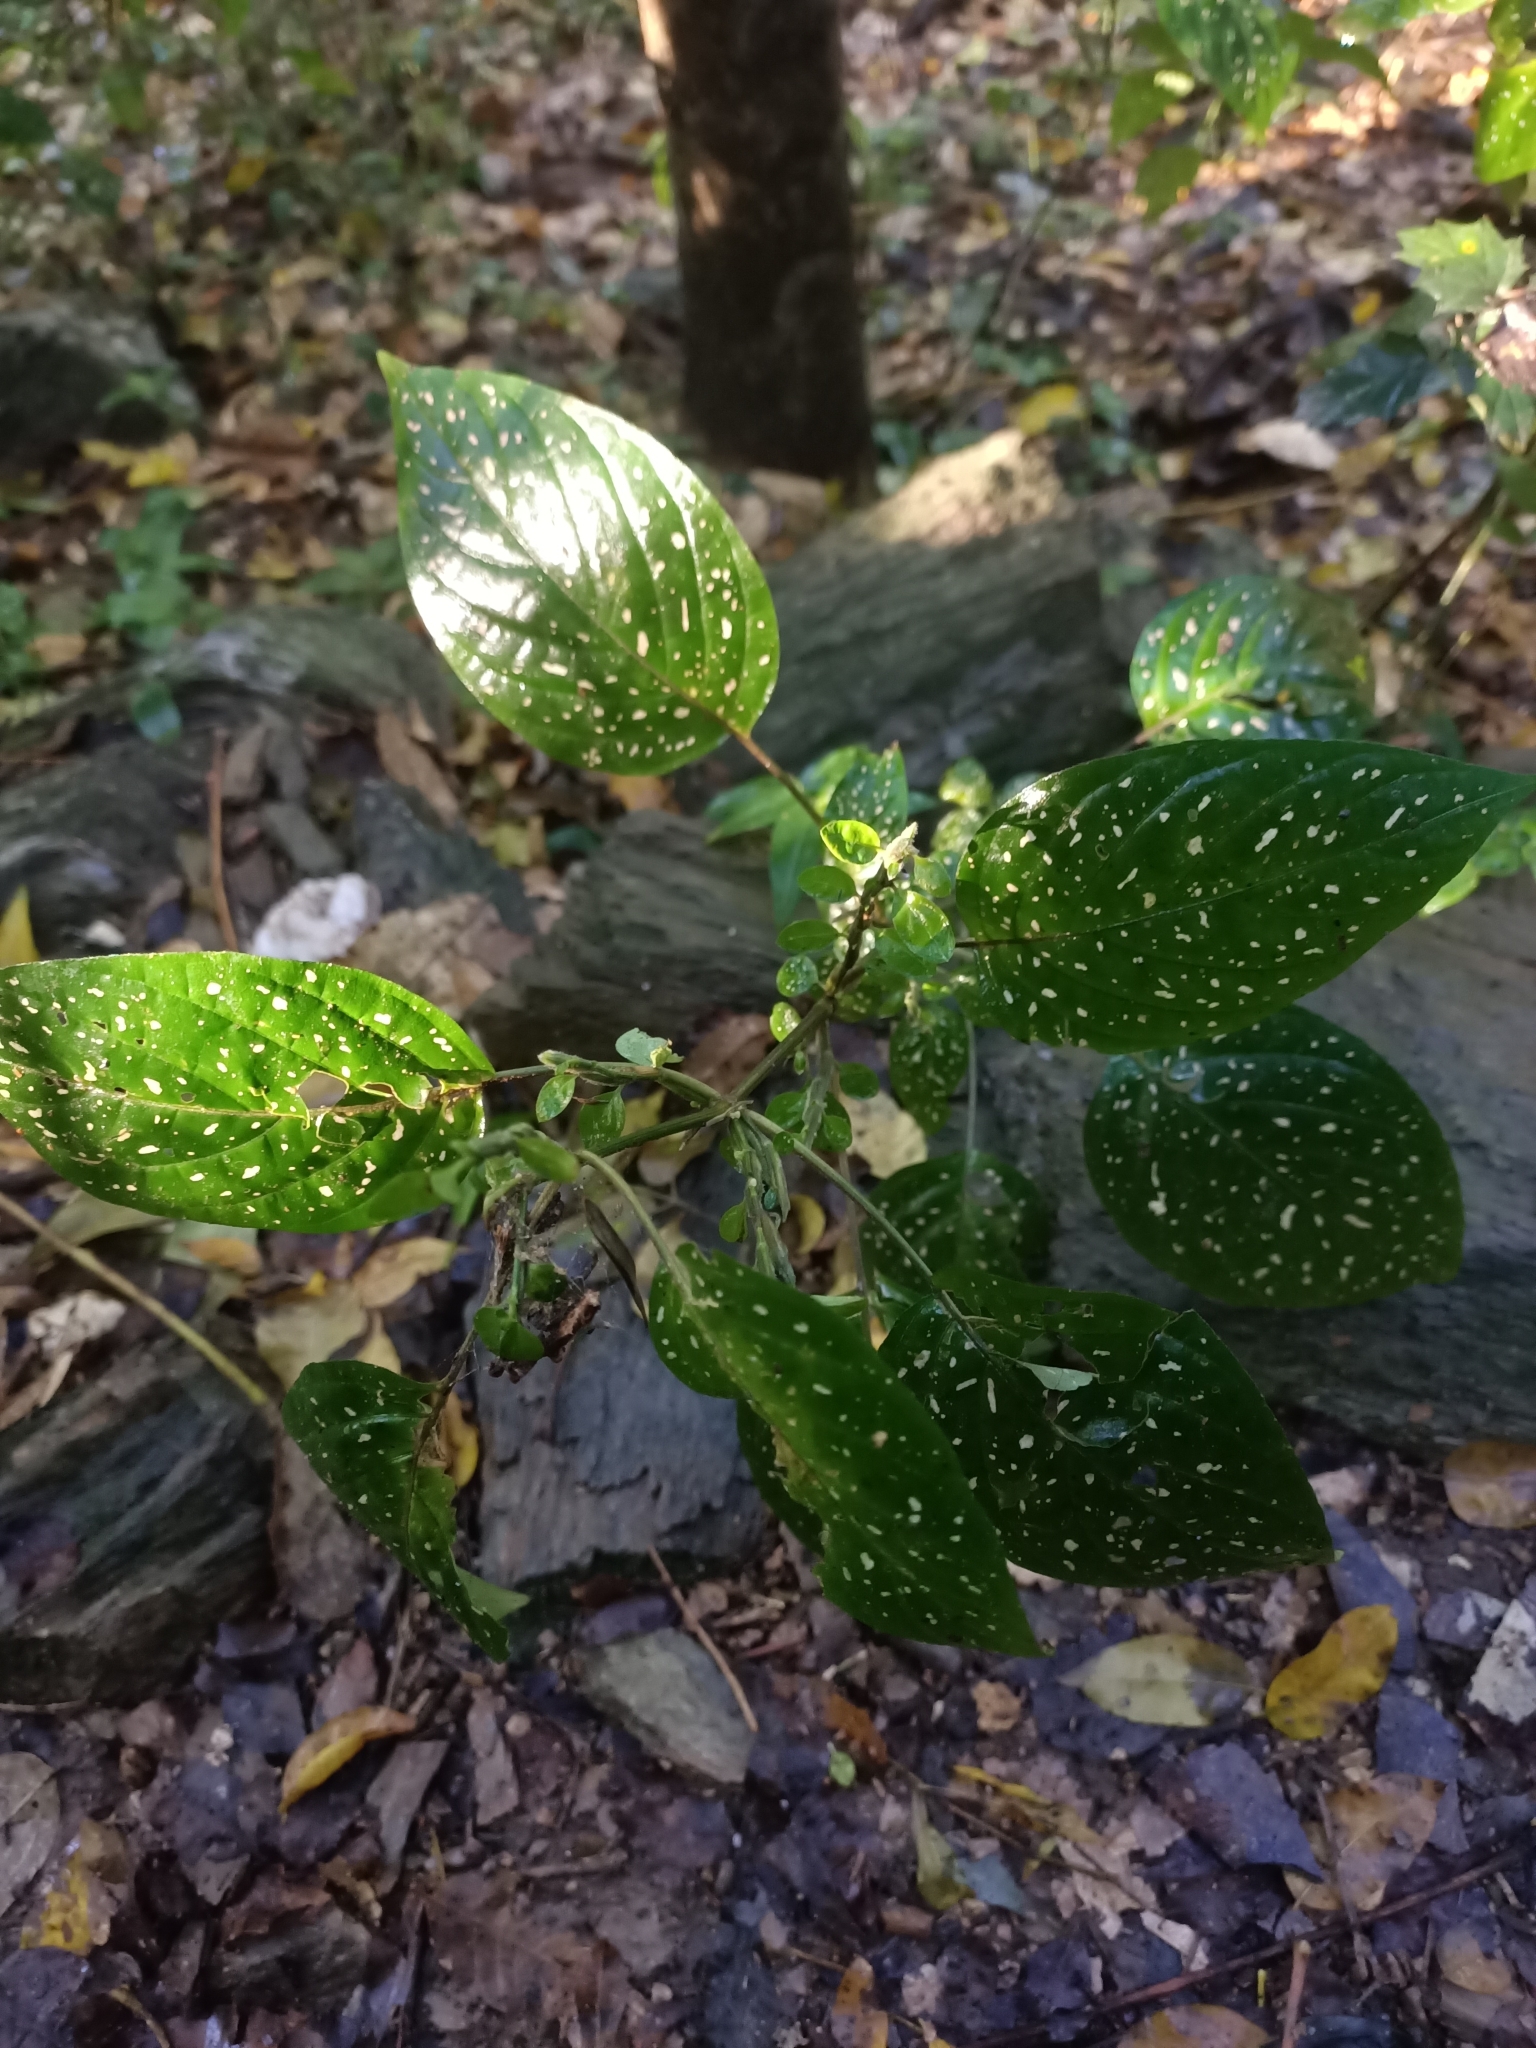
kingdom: Plantae
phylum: Tracheophyta
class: Magnoliopsida
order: Lamiales
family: Acanthaceae
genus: Hypoestes
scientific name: Hypoestes phyllostachya
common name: Polkadot-plant
